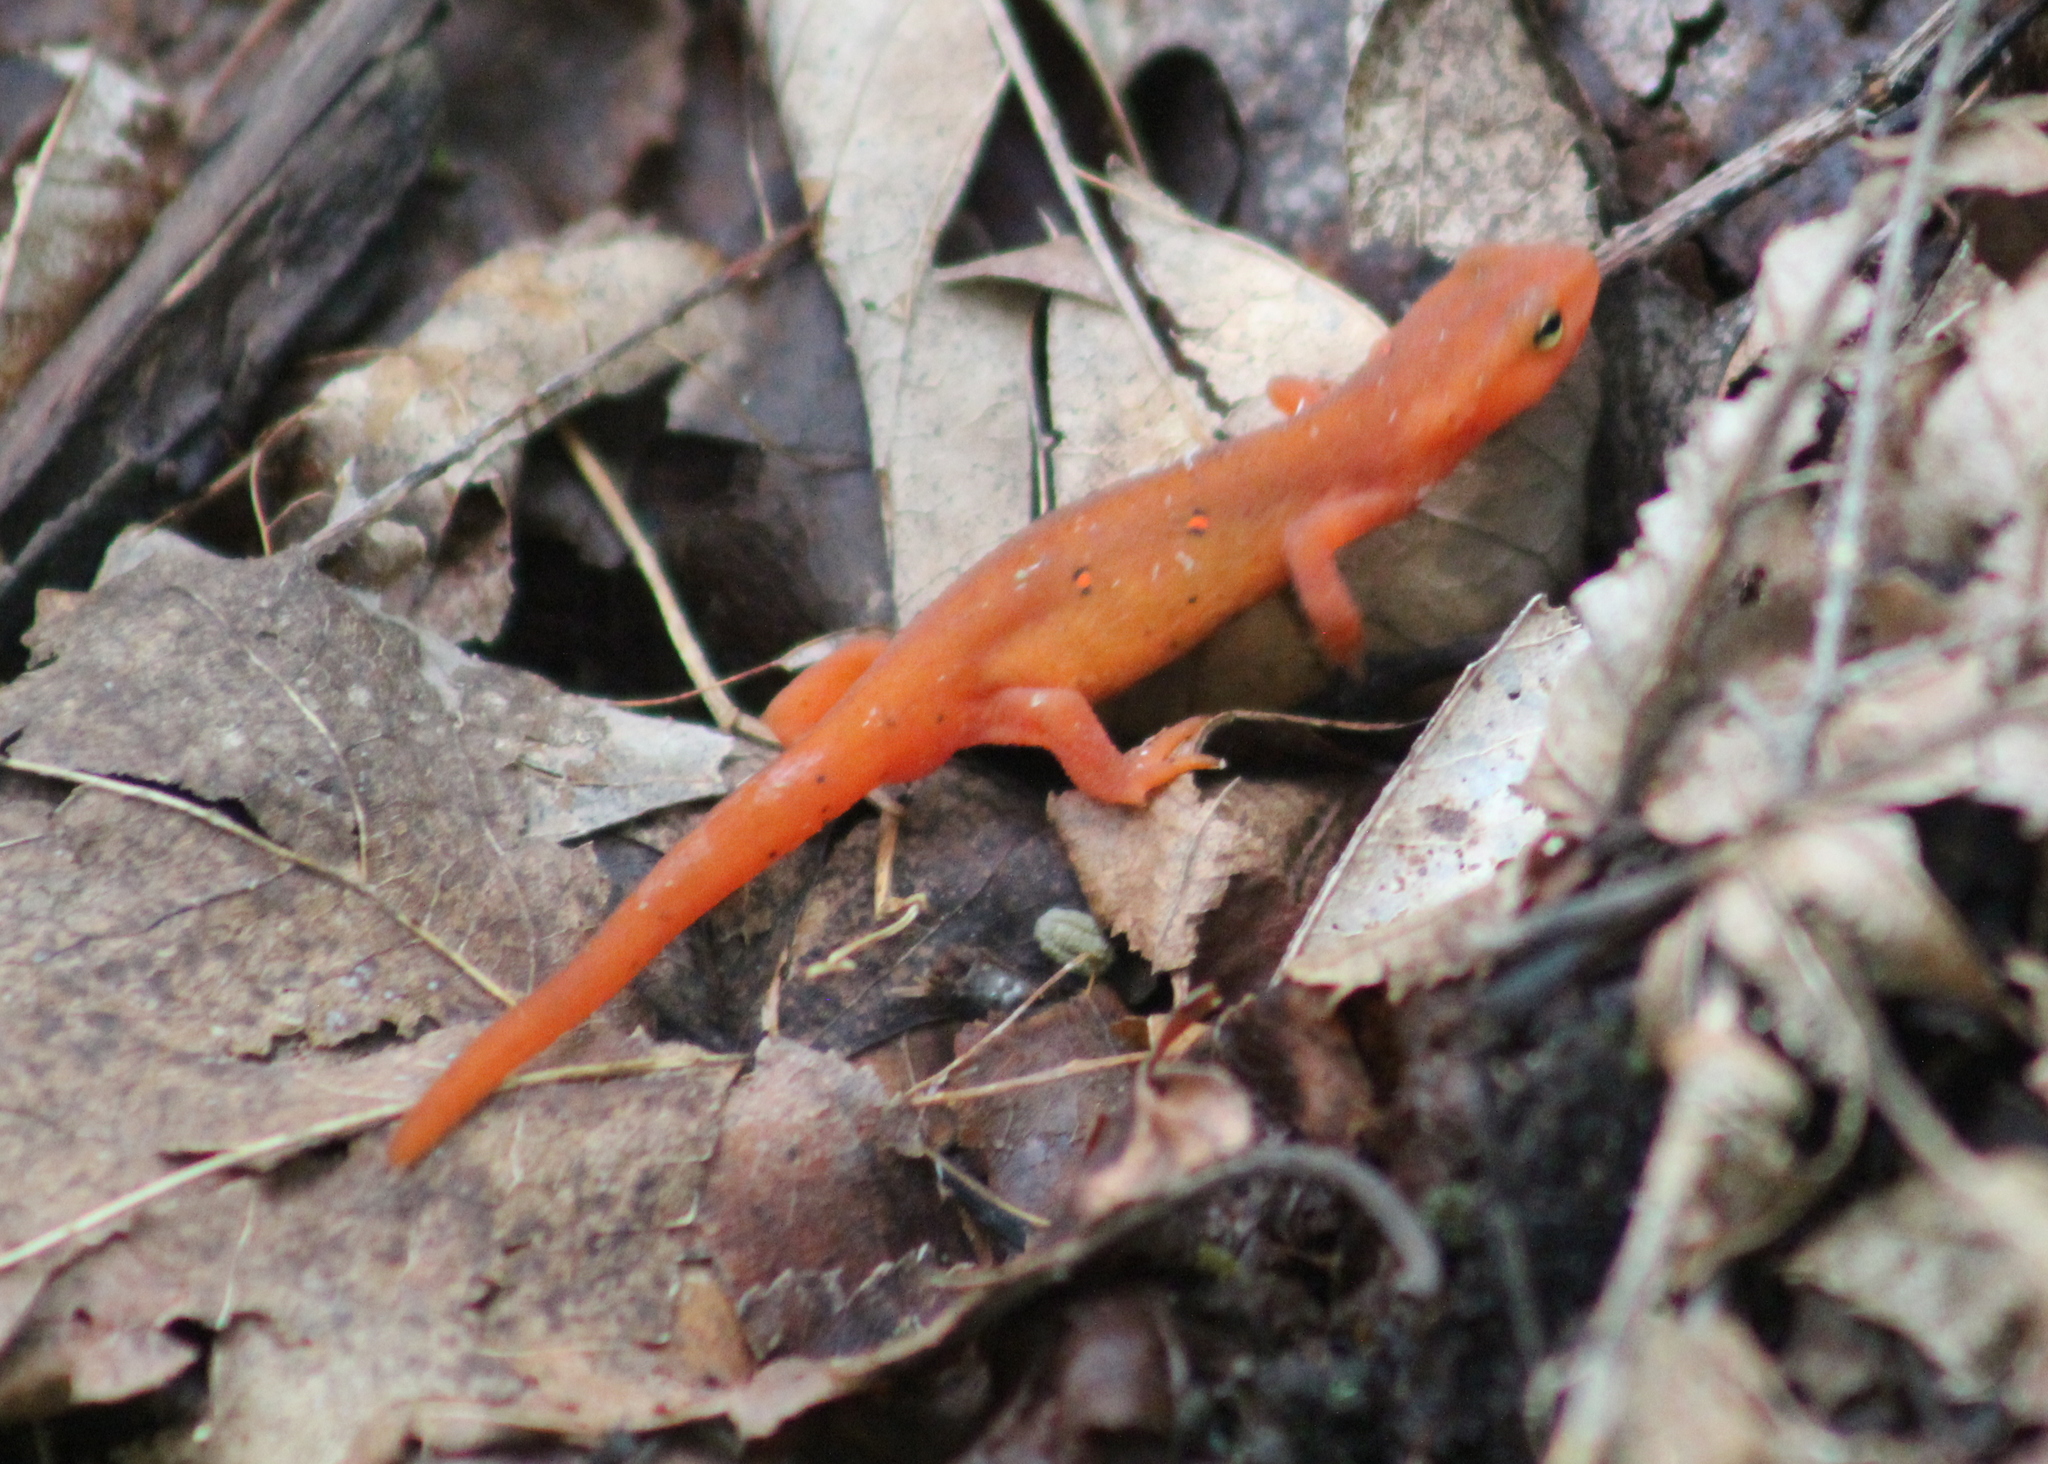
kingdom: Animalia
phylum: Chordata
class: Amphibia
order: Caudata
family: Salamandridae
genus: Notophthalmus
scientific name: Notophthalmus viridescens
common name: Eastern newt
